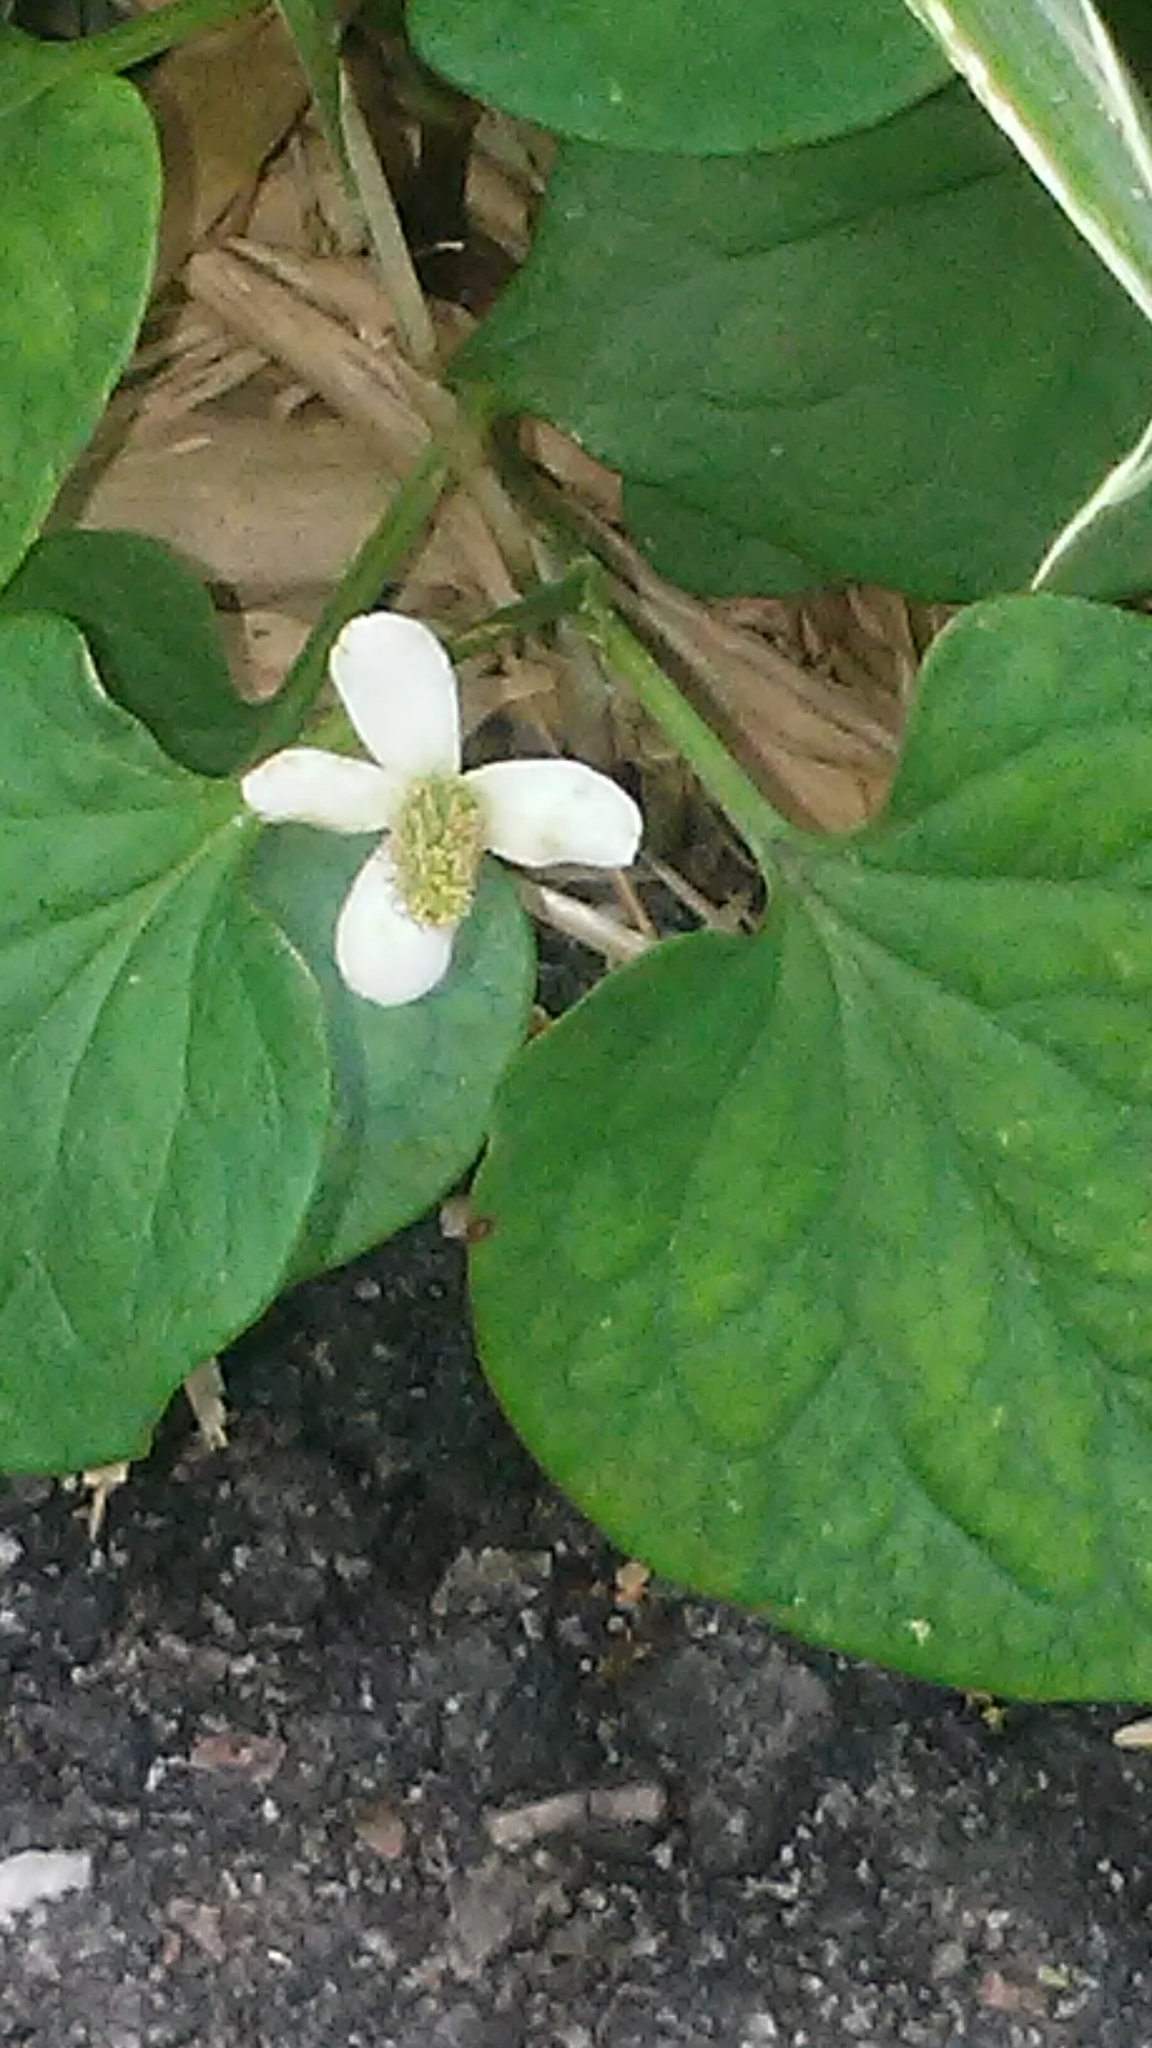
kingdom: Plantae
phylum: Tracheophyta
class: Magnoliopsida
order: Piperales
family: Saururaceae
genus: Houttuynia
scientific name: Houttuynia cordata
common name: Chameleon
